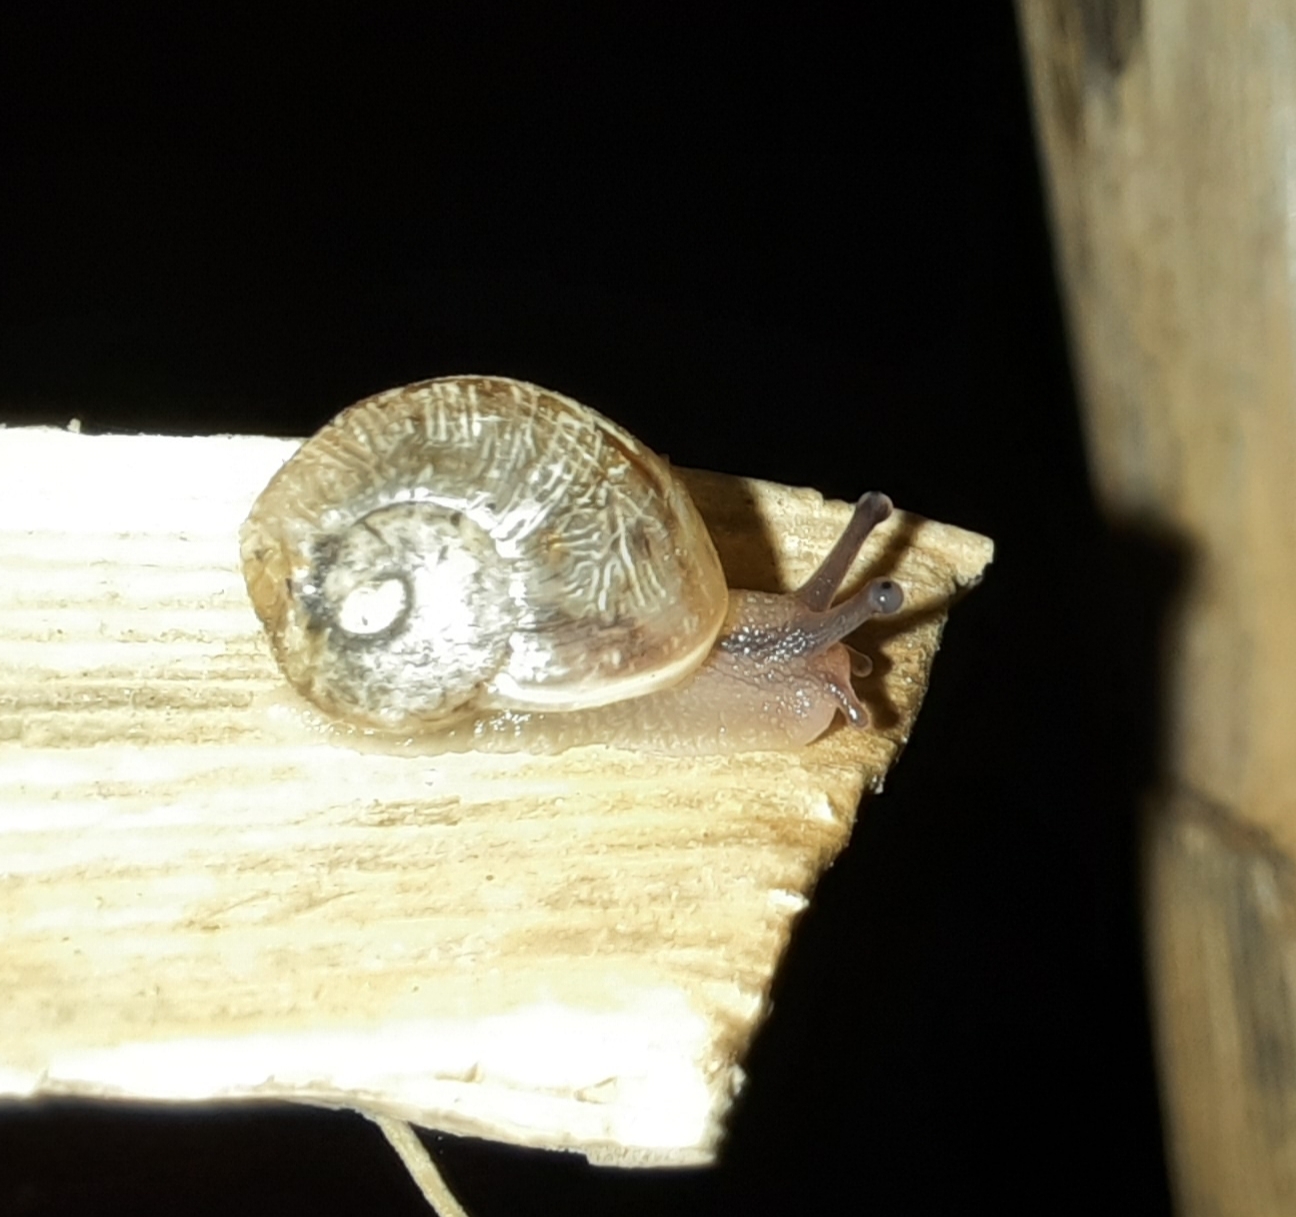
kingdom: Animalia
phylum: Mollusca
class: Gastropoda
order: Stylommatophora
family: Helicidae
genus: Cornu
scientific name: Cornu aspersum
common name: Brown garden snail
